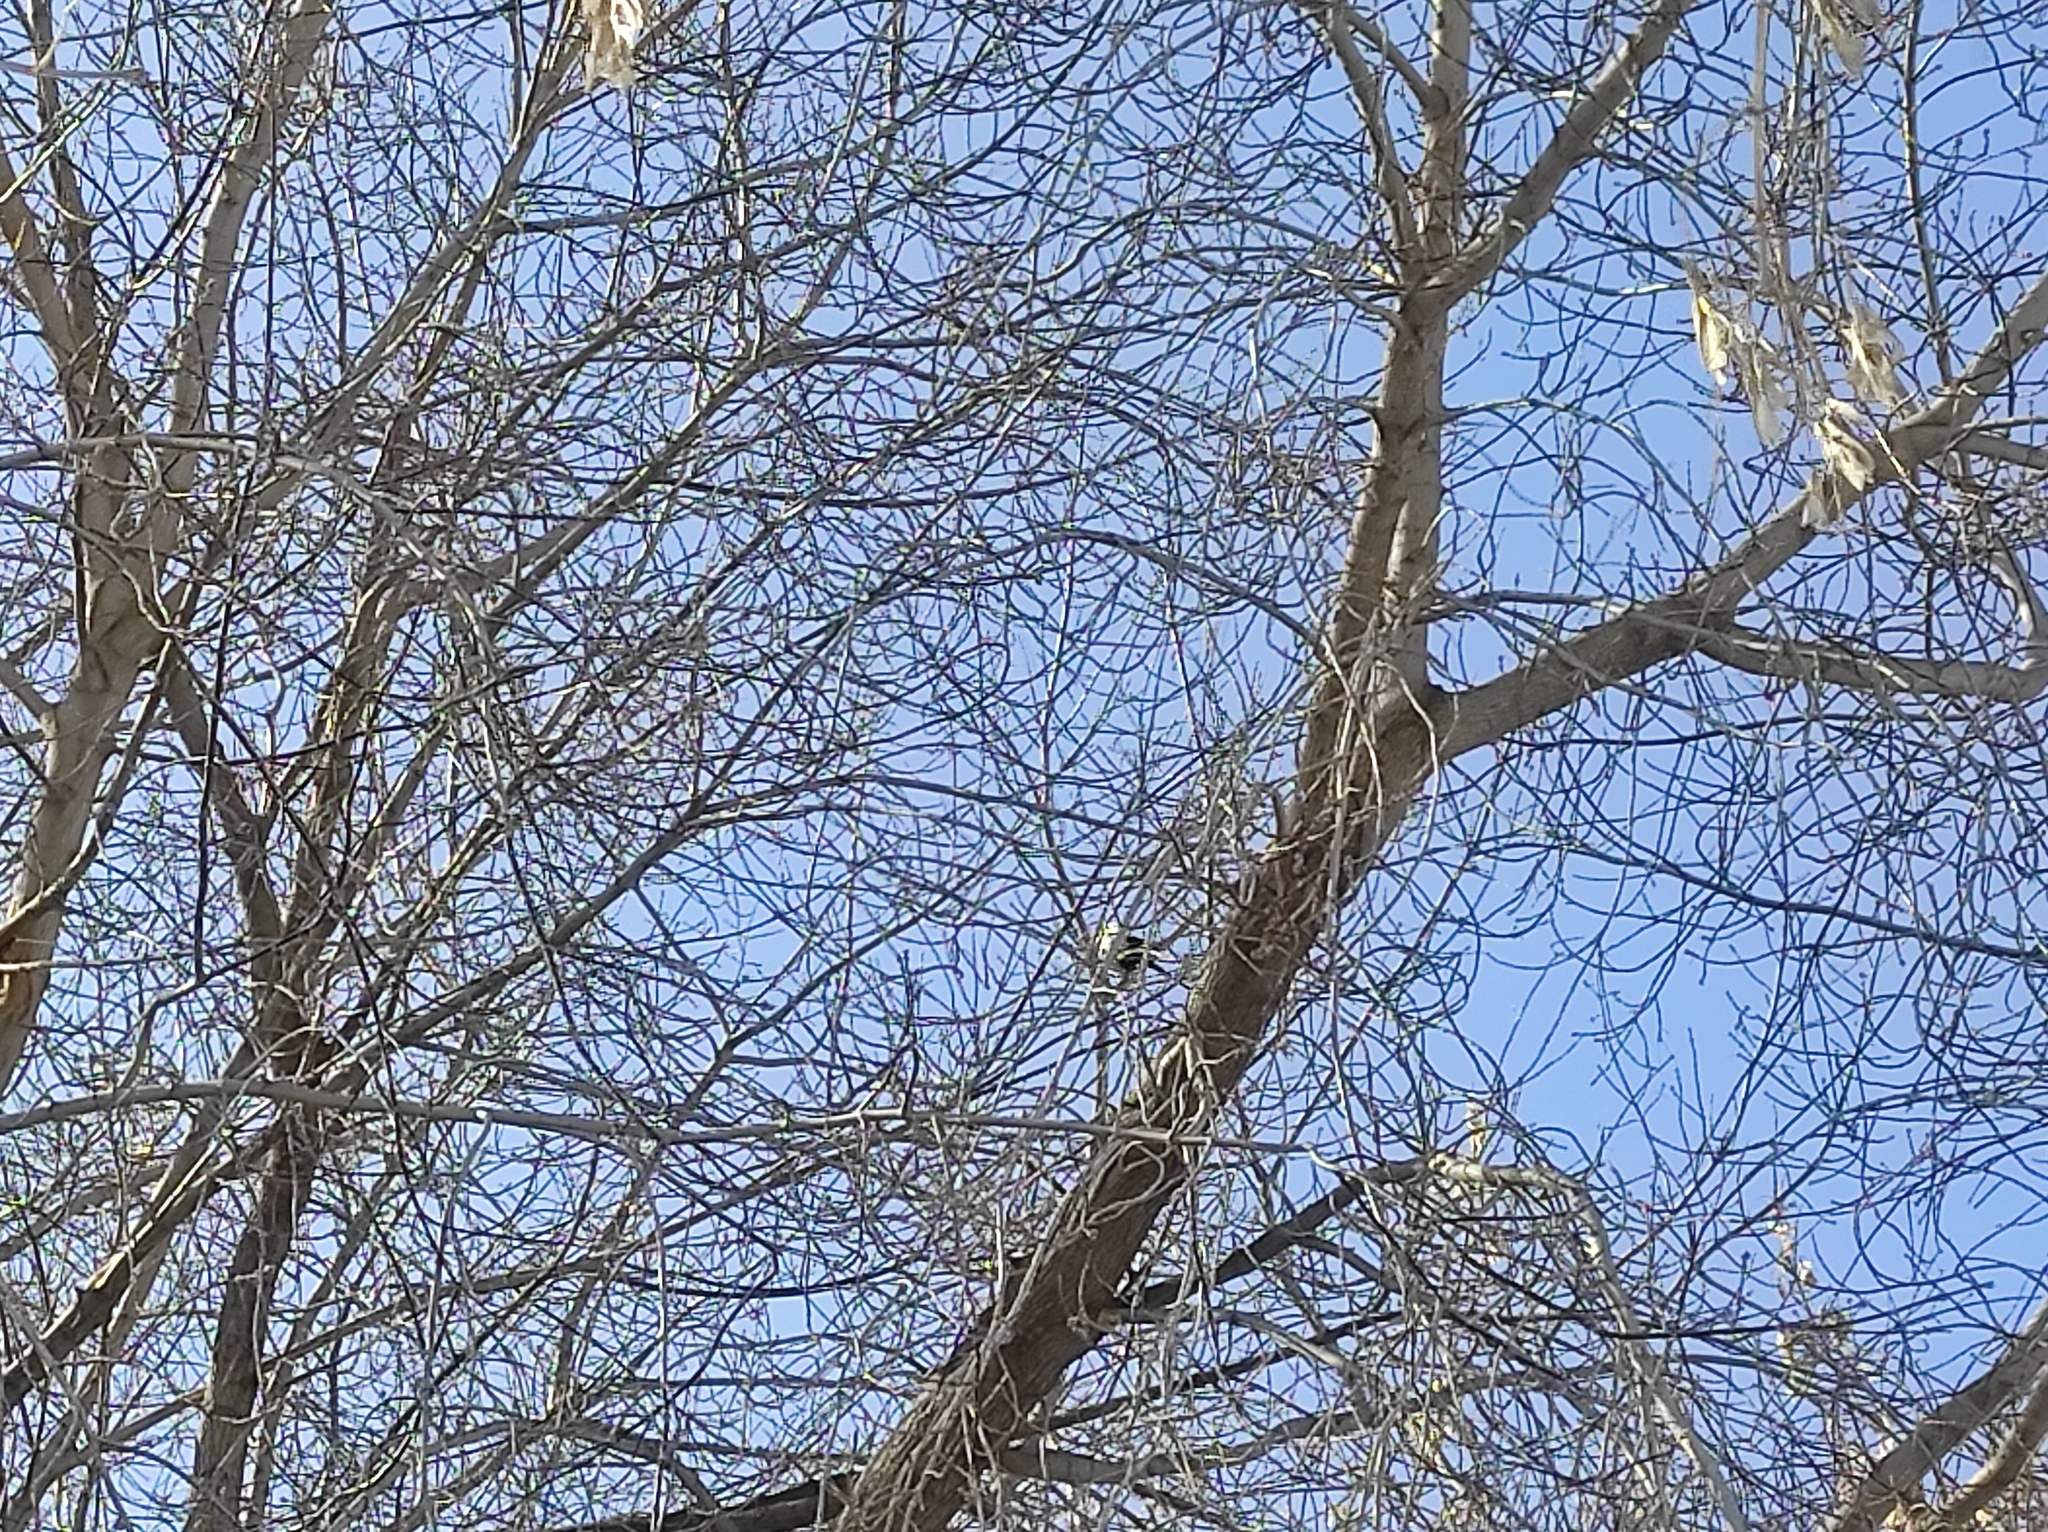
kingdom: Animalia
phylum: Chordata
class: Aves
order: Passeriformes
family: Corvidae
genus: Pica
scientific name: Pica pica
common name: Eurasian magpie
